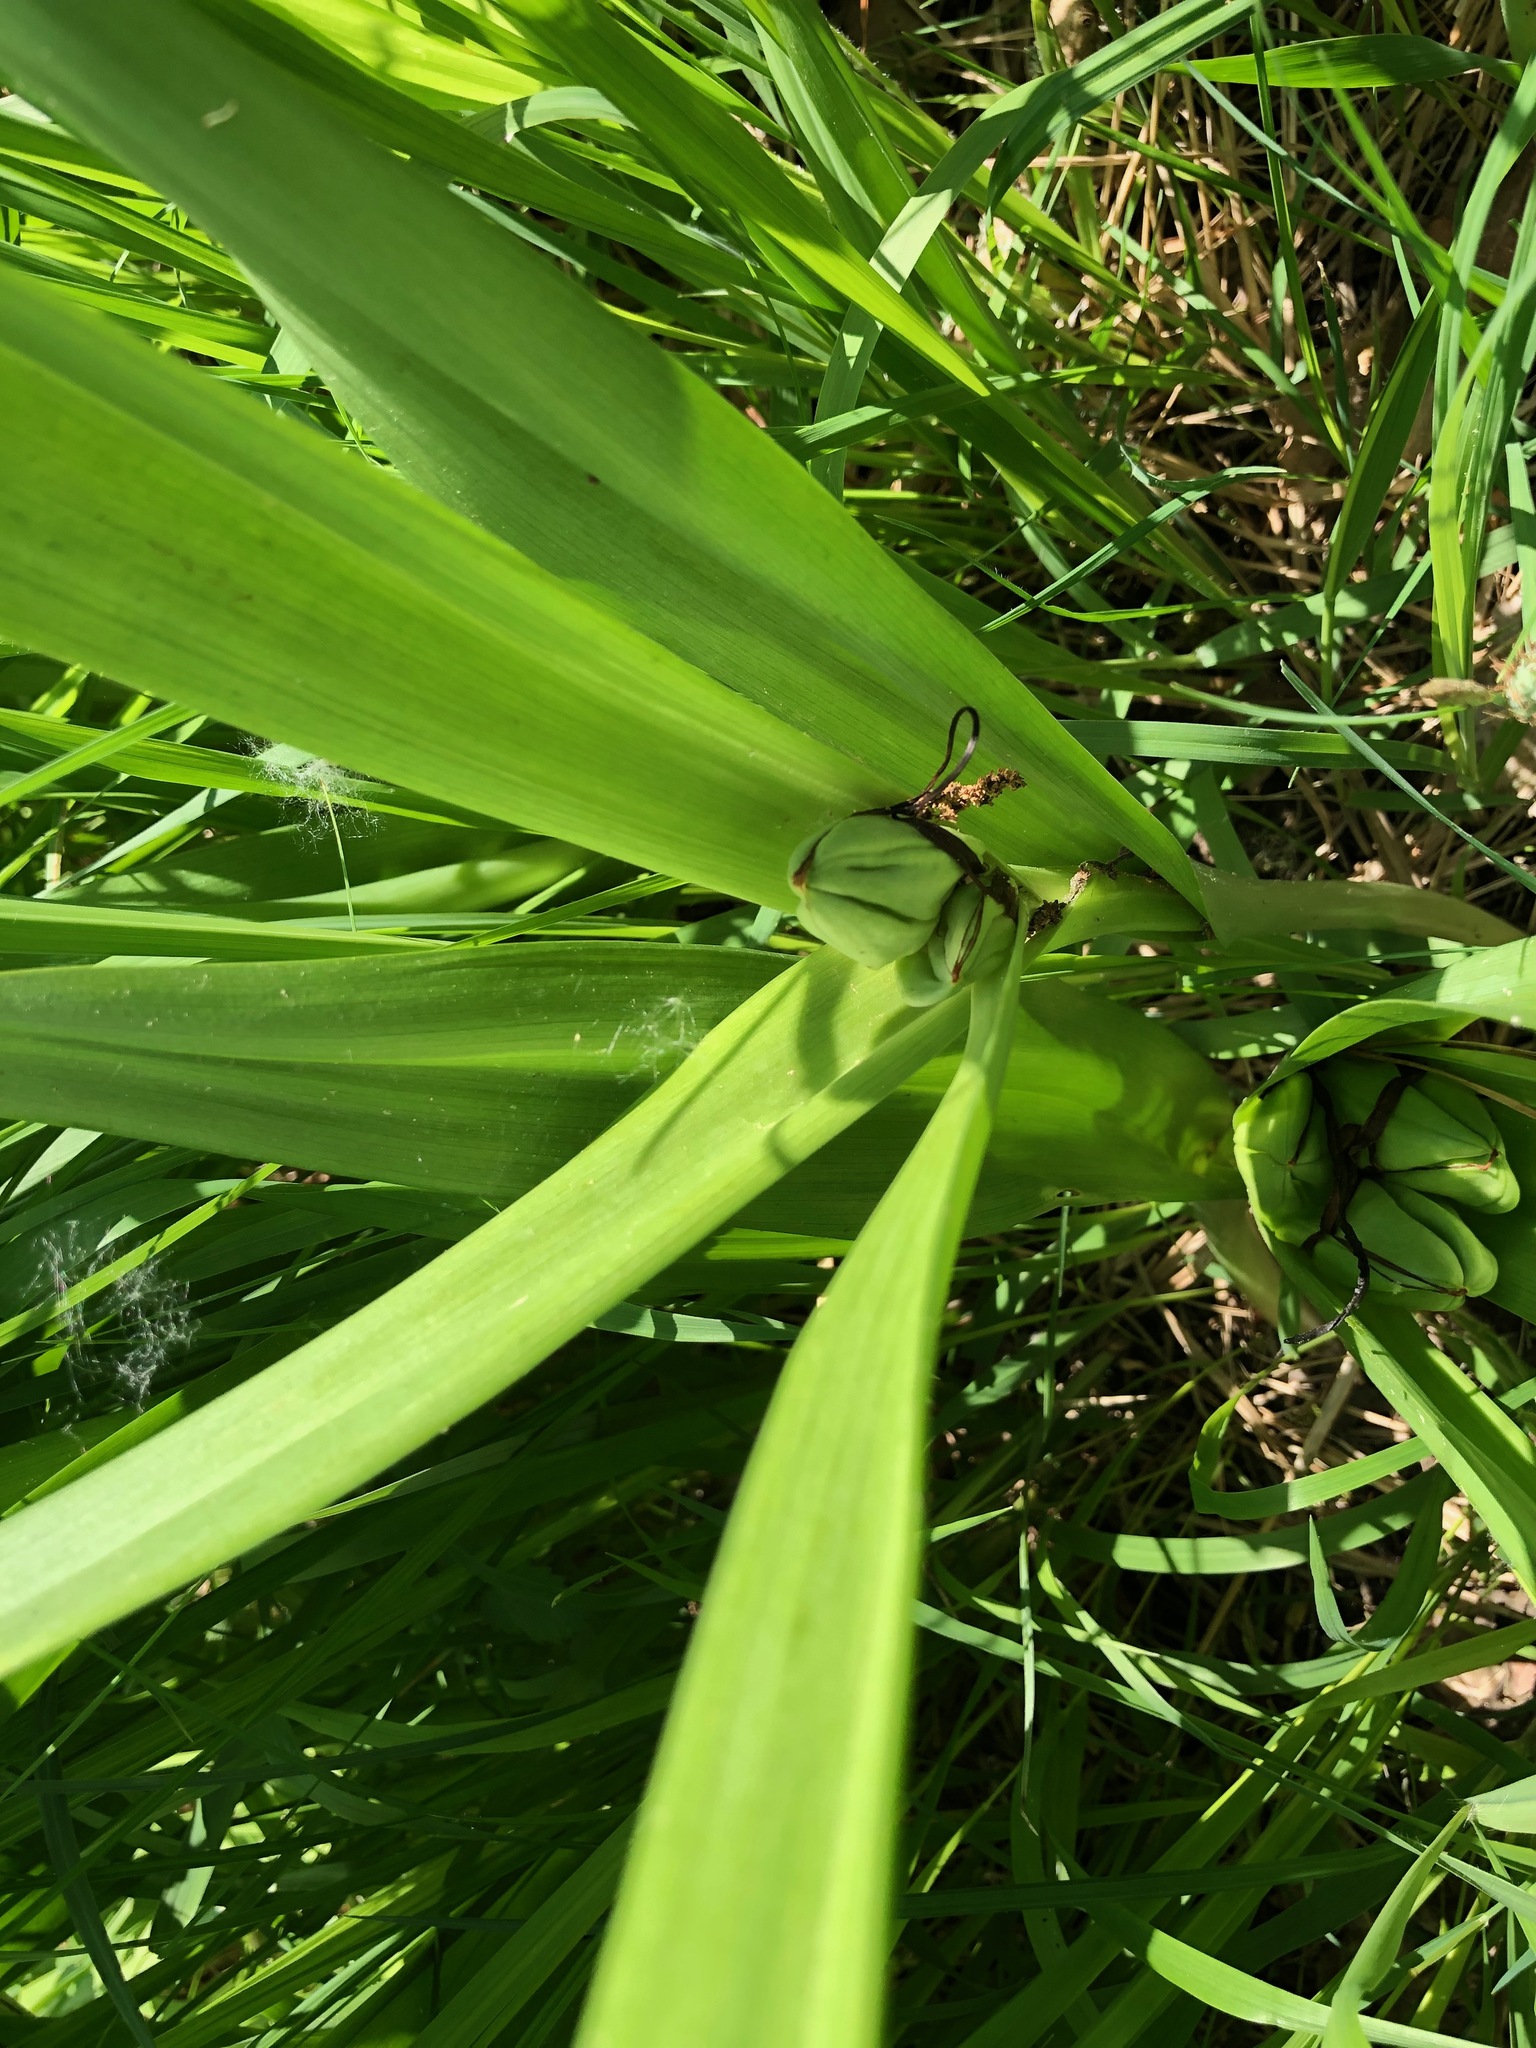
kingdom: Plantae
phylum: Tracheophyta
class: Liliopsida
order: Liliales
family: Colchicaceae
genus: Colchicum
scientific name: Colchicum autumnale
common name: Autumn crocus
